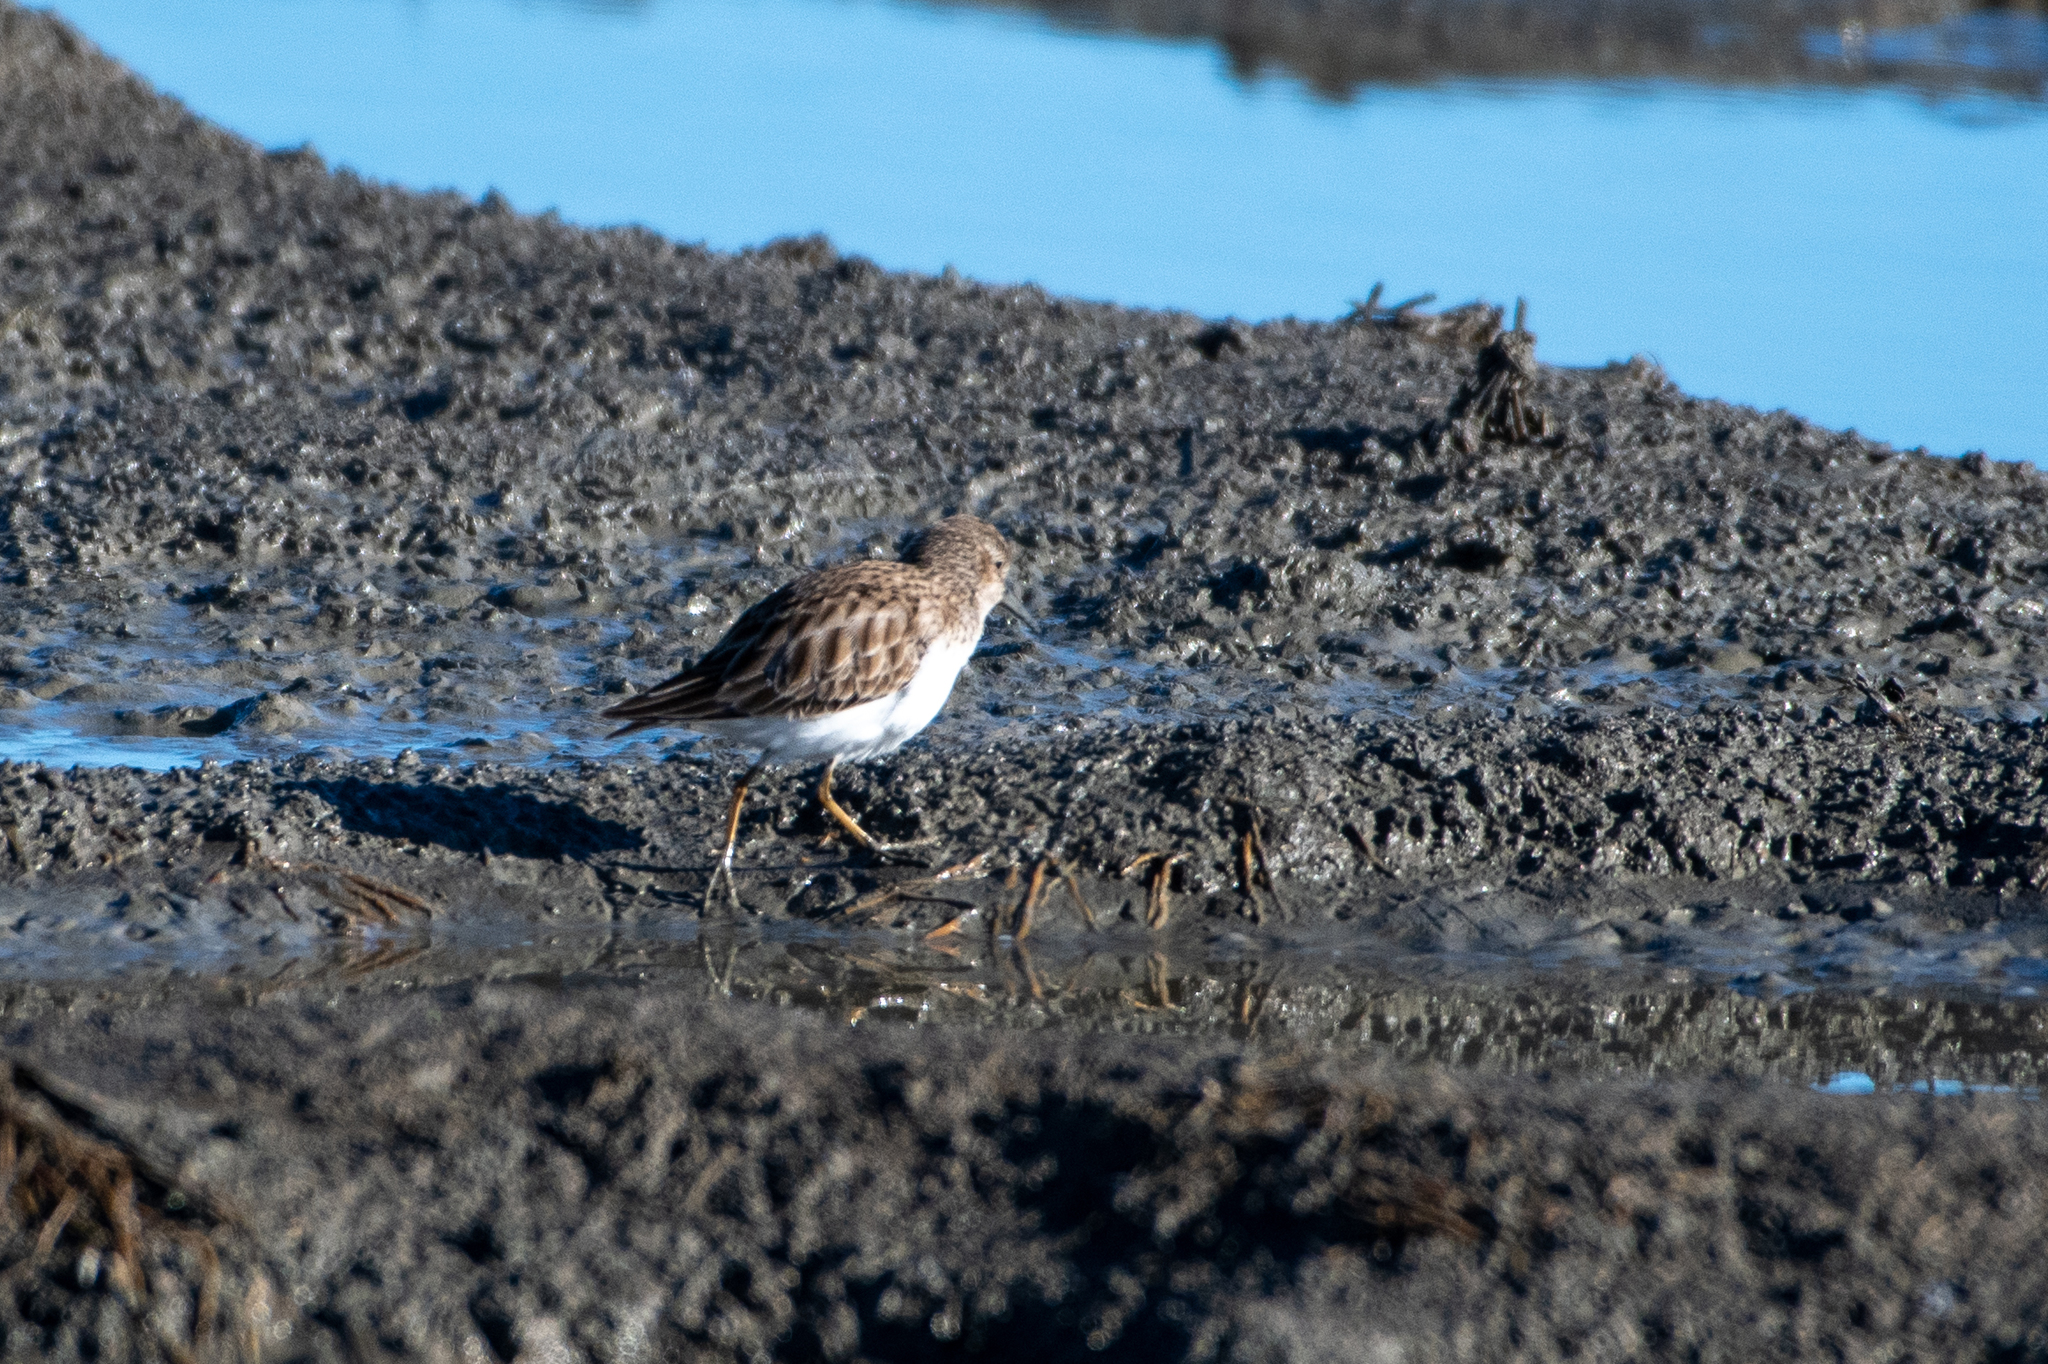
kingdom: Animalia
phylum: Chordata
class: Aves
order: Charadriiformes
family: Scolopacidae
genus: Calidris
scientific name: Calidris minutilla
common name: Least sandpiper
